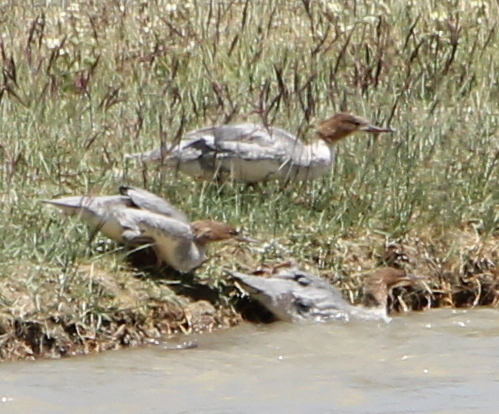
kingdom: Animalia
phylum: Chordata
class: Aves
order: Anseriformes
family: Anatidae
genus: Mergus
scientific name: Mergus merganser
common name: Common merganser
